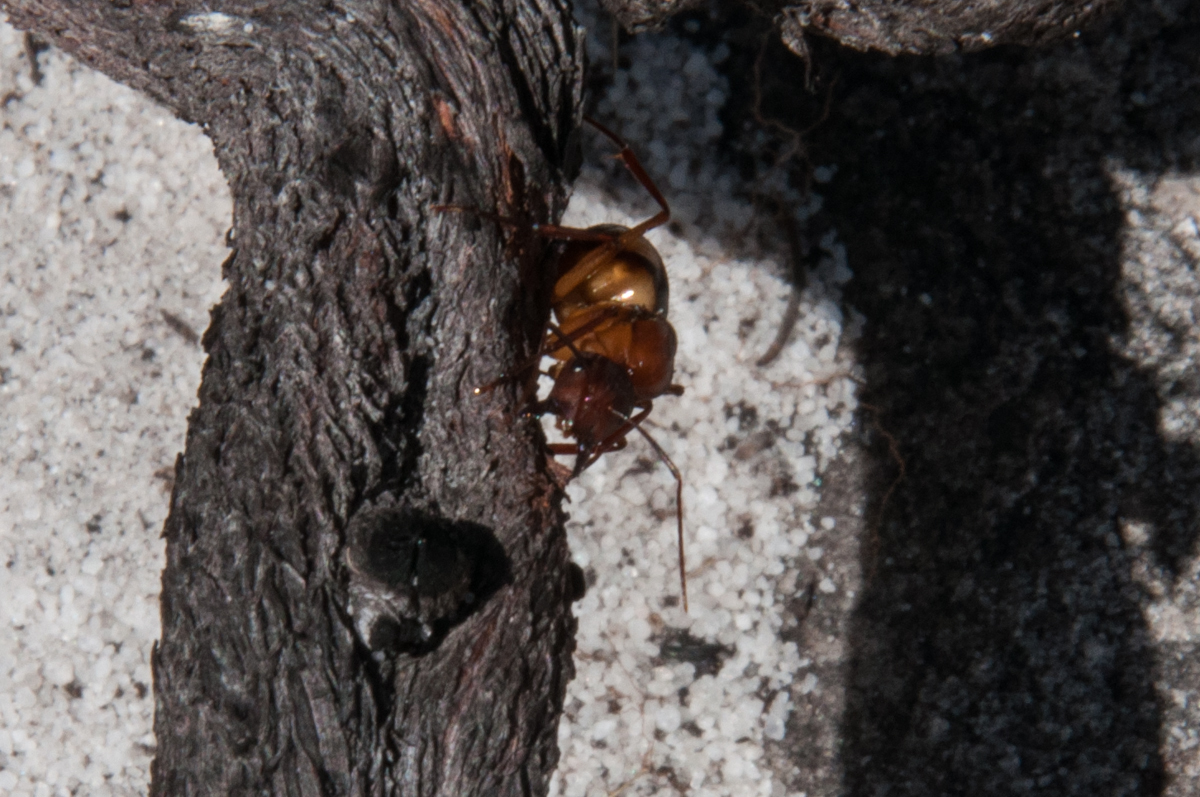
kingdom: Animalia
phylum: Arthropoda
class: Insecta
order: Hymenoptera
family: Formicidae
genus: Camponotus
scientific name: Camponotus maculatus
